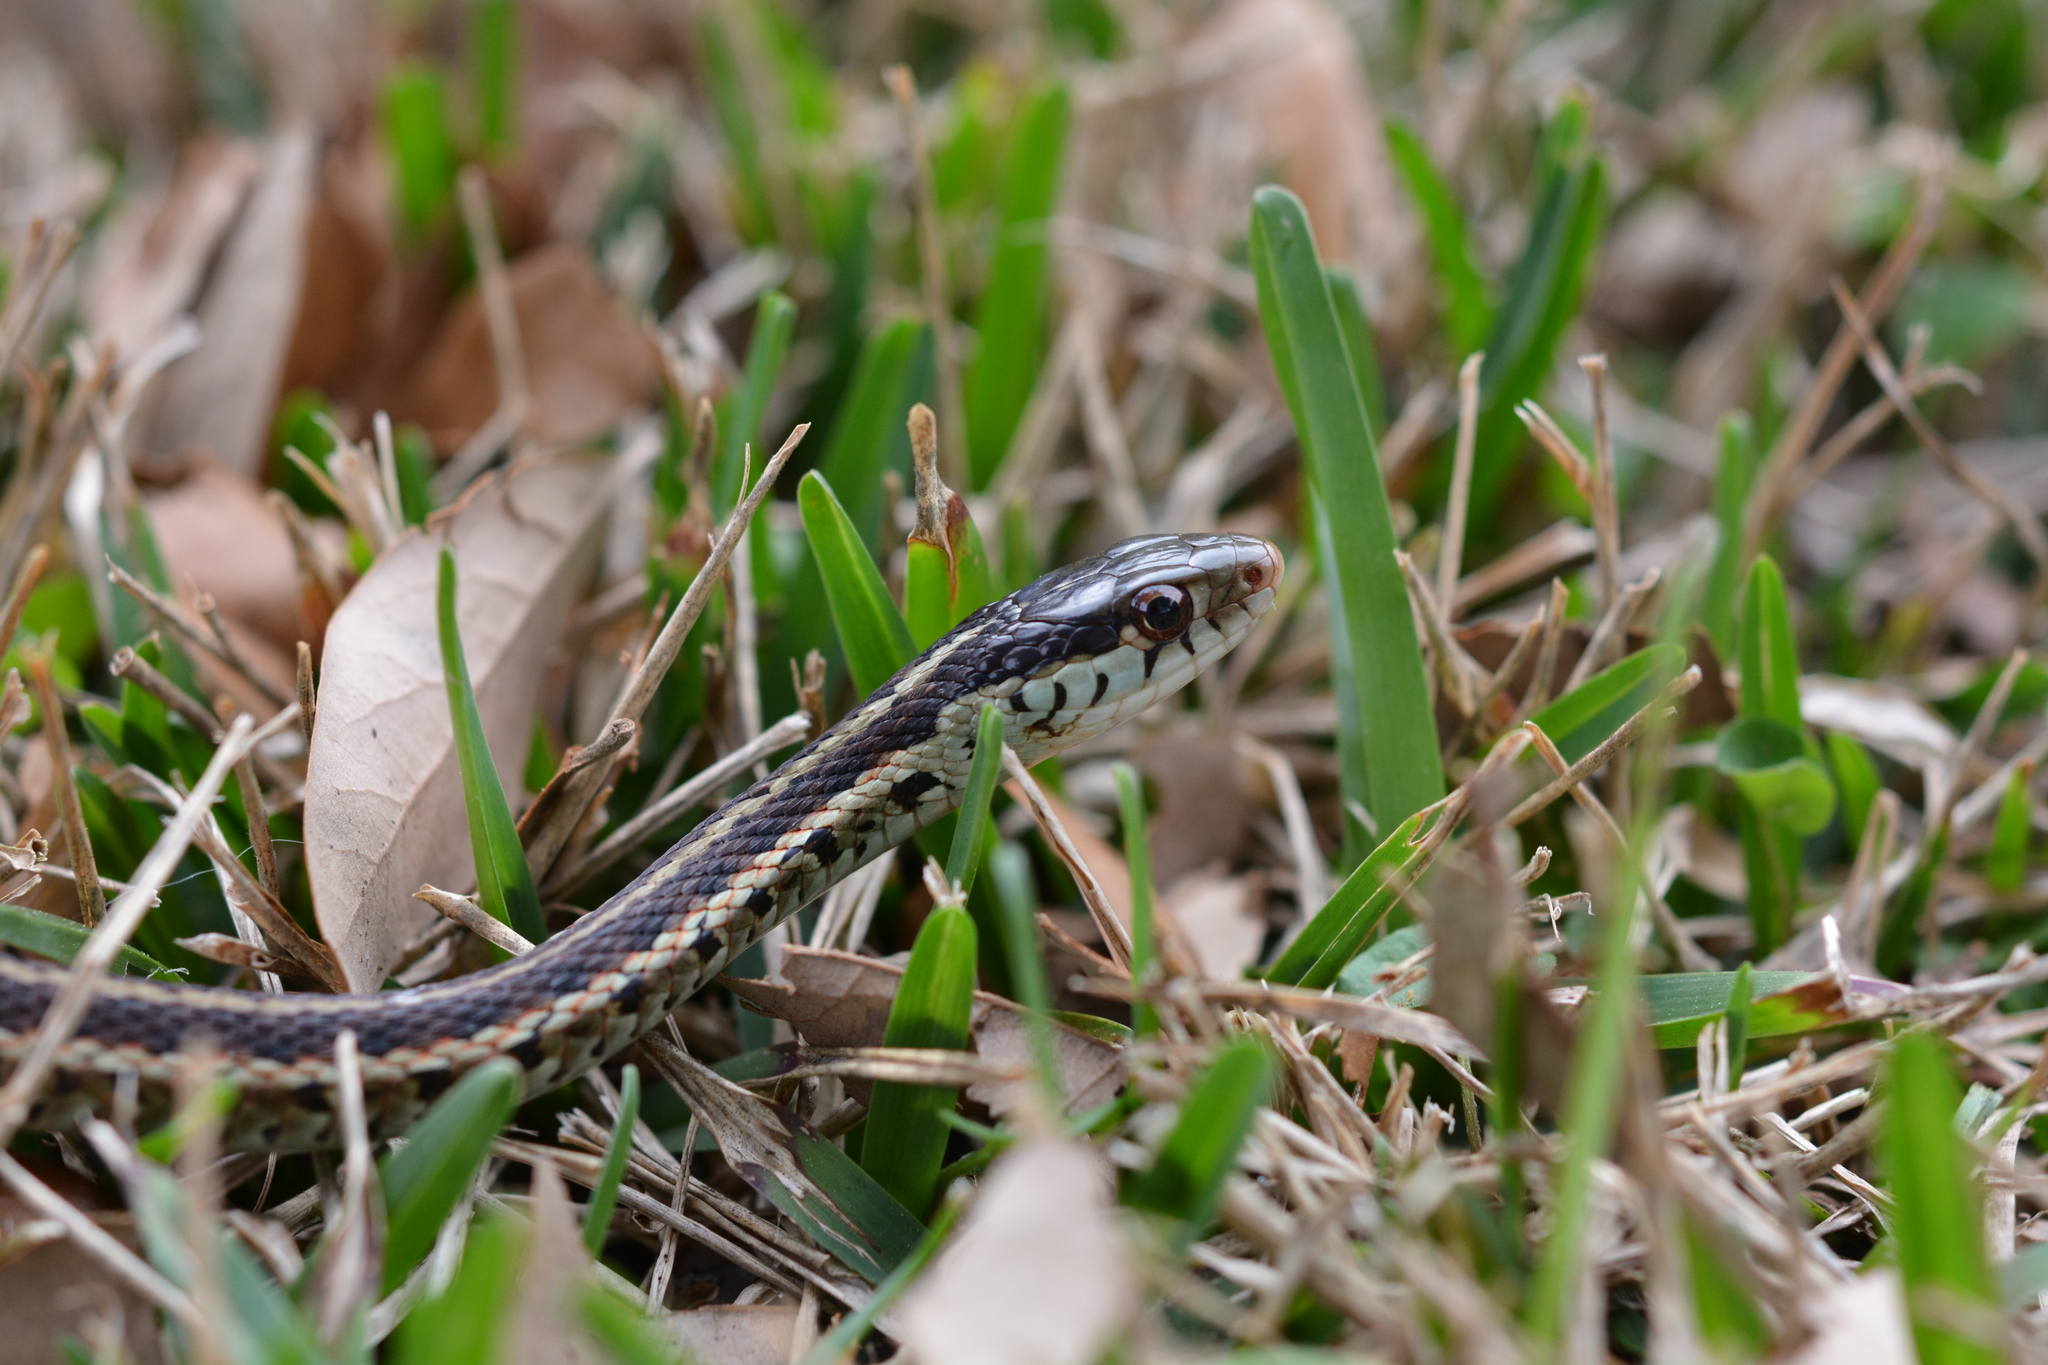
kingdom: Animalia
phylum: Chordata
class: Squamata
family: Colubridae
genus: Thamnophis
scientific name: Thamnophis sirtalis
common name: Common garter snake
